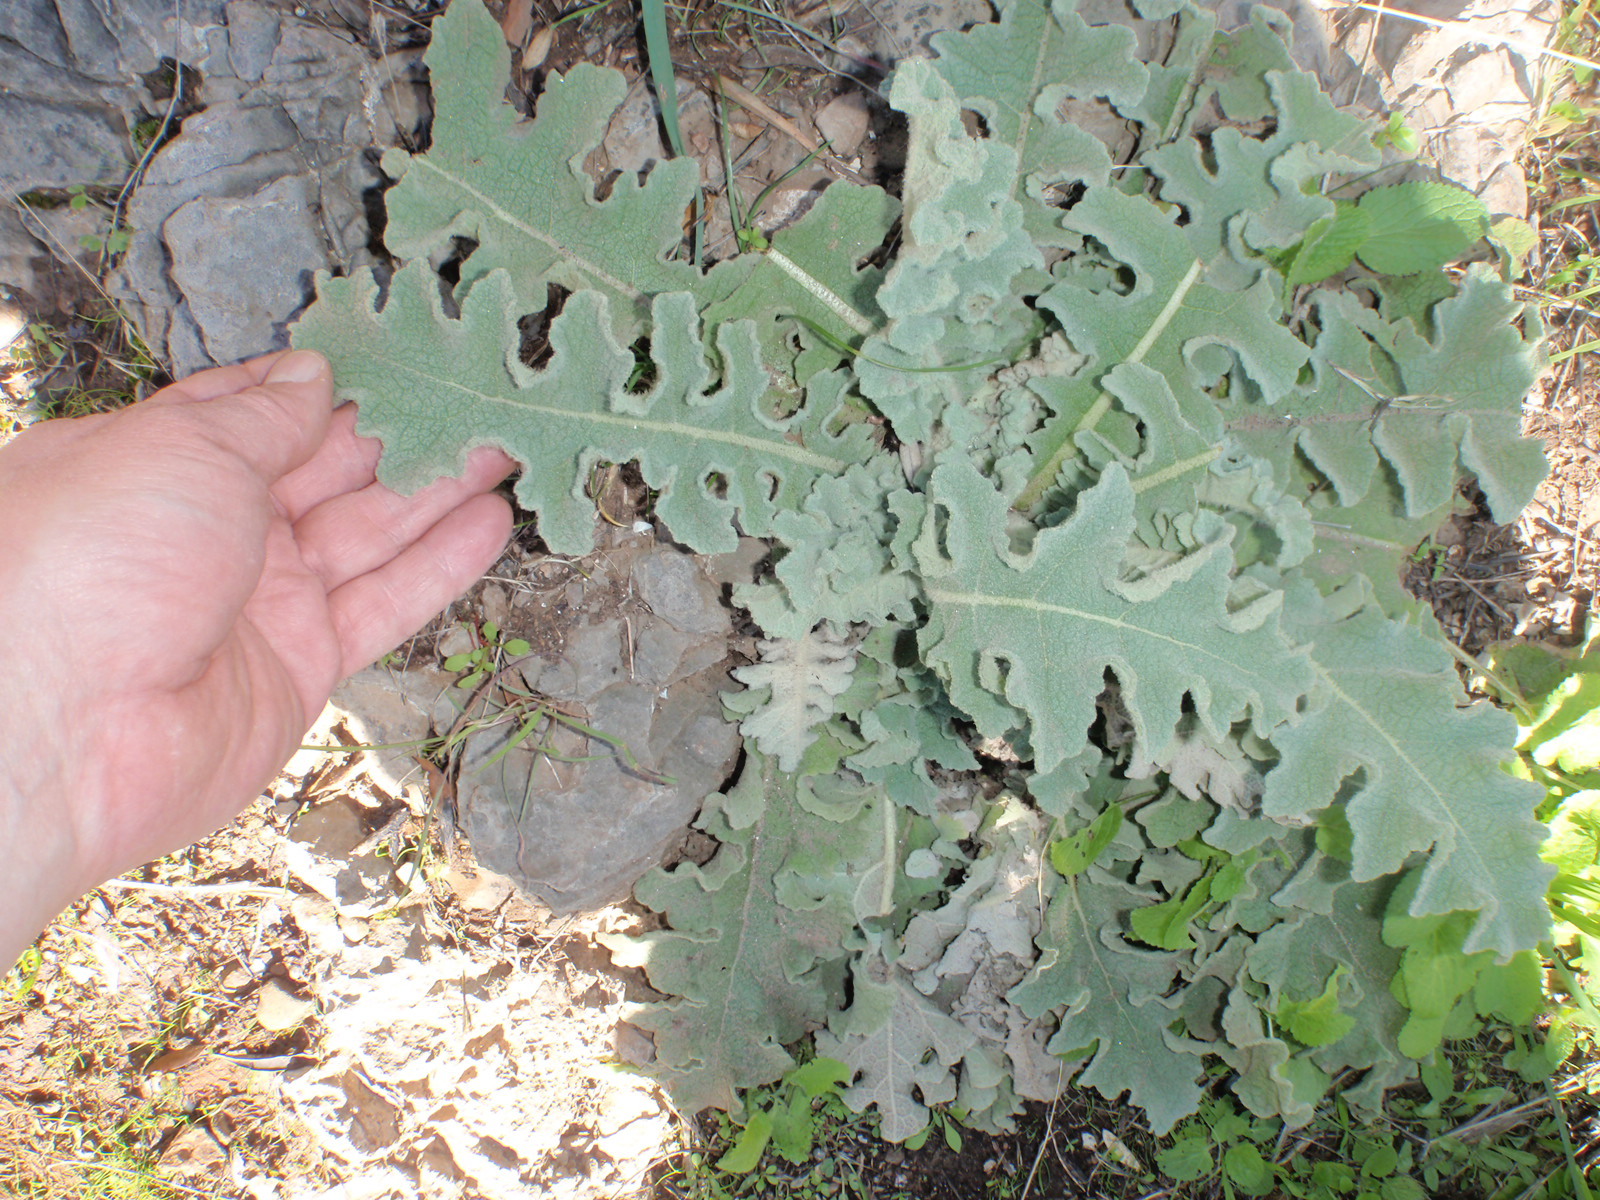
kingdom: Plantae
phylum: Tracheophyta
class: Magnoliopsida
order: Lamiales
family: Scrophulariaceae
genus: Verbascum
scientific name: Verbascum sinuatum
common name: Wavyleaf mullein
